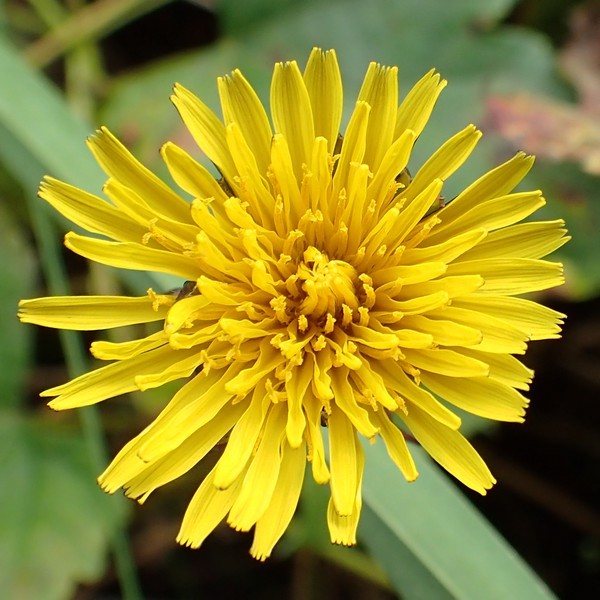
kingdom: Plantae
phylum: Tracheophyta
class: Magnoliopsida
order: Asterales
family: Asteraceae
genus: Taraxacum
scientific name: Taraxacum officinale
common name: Common dandelion
